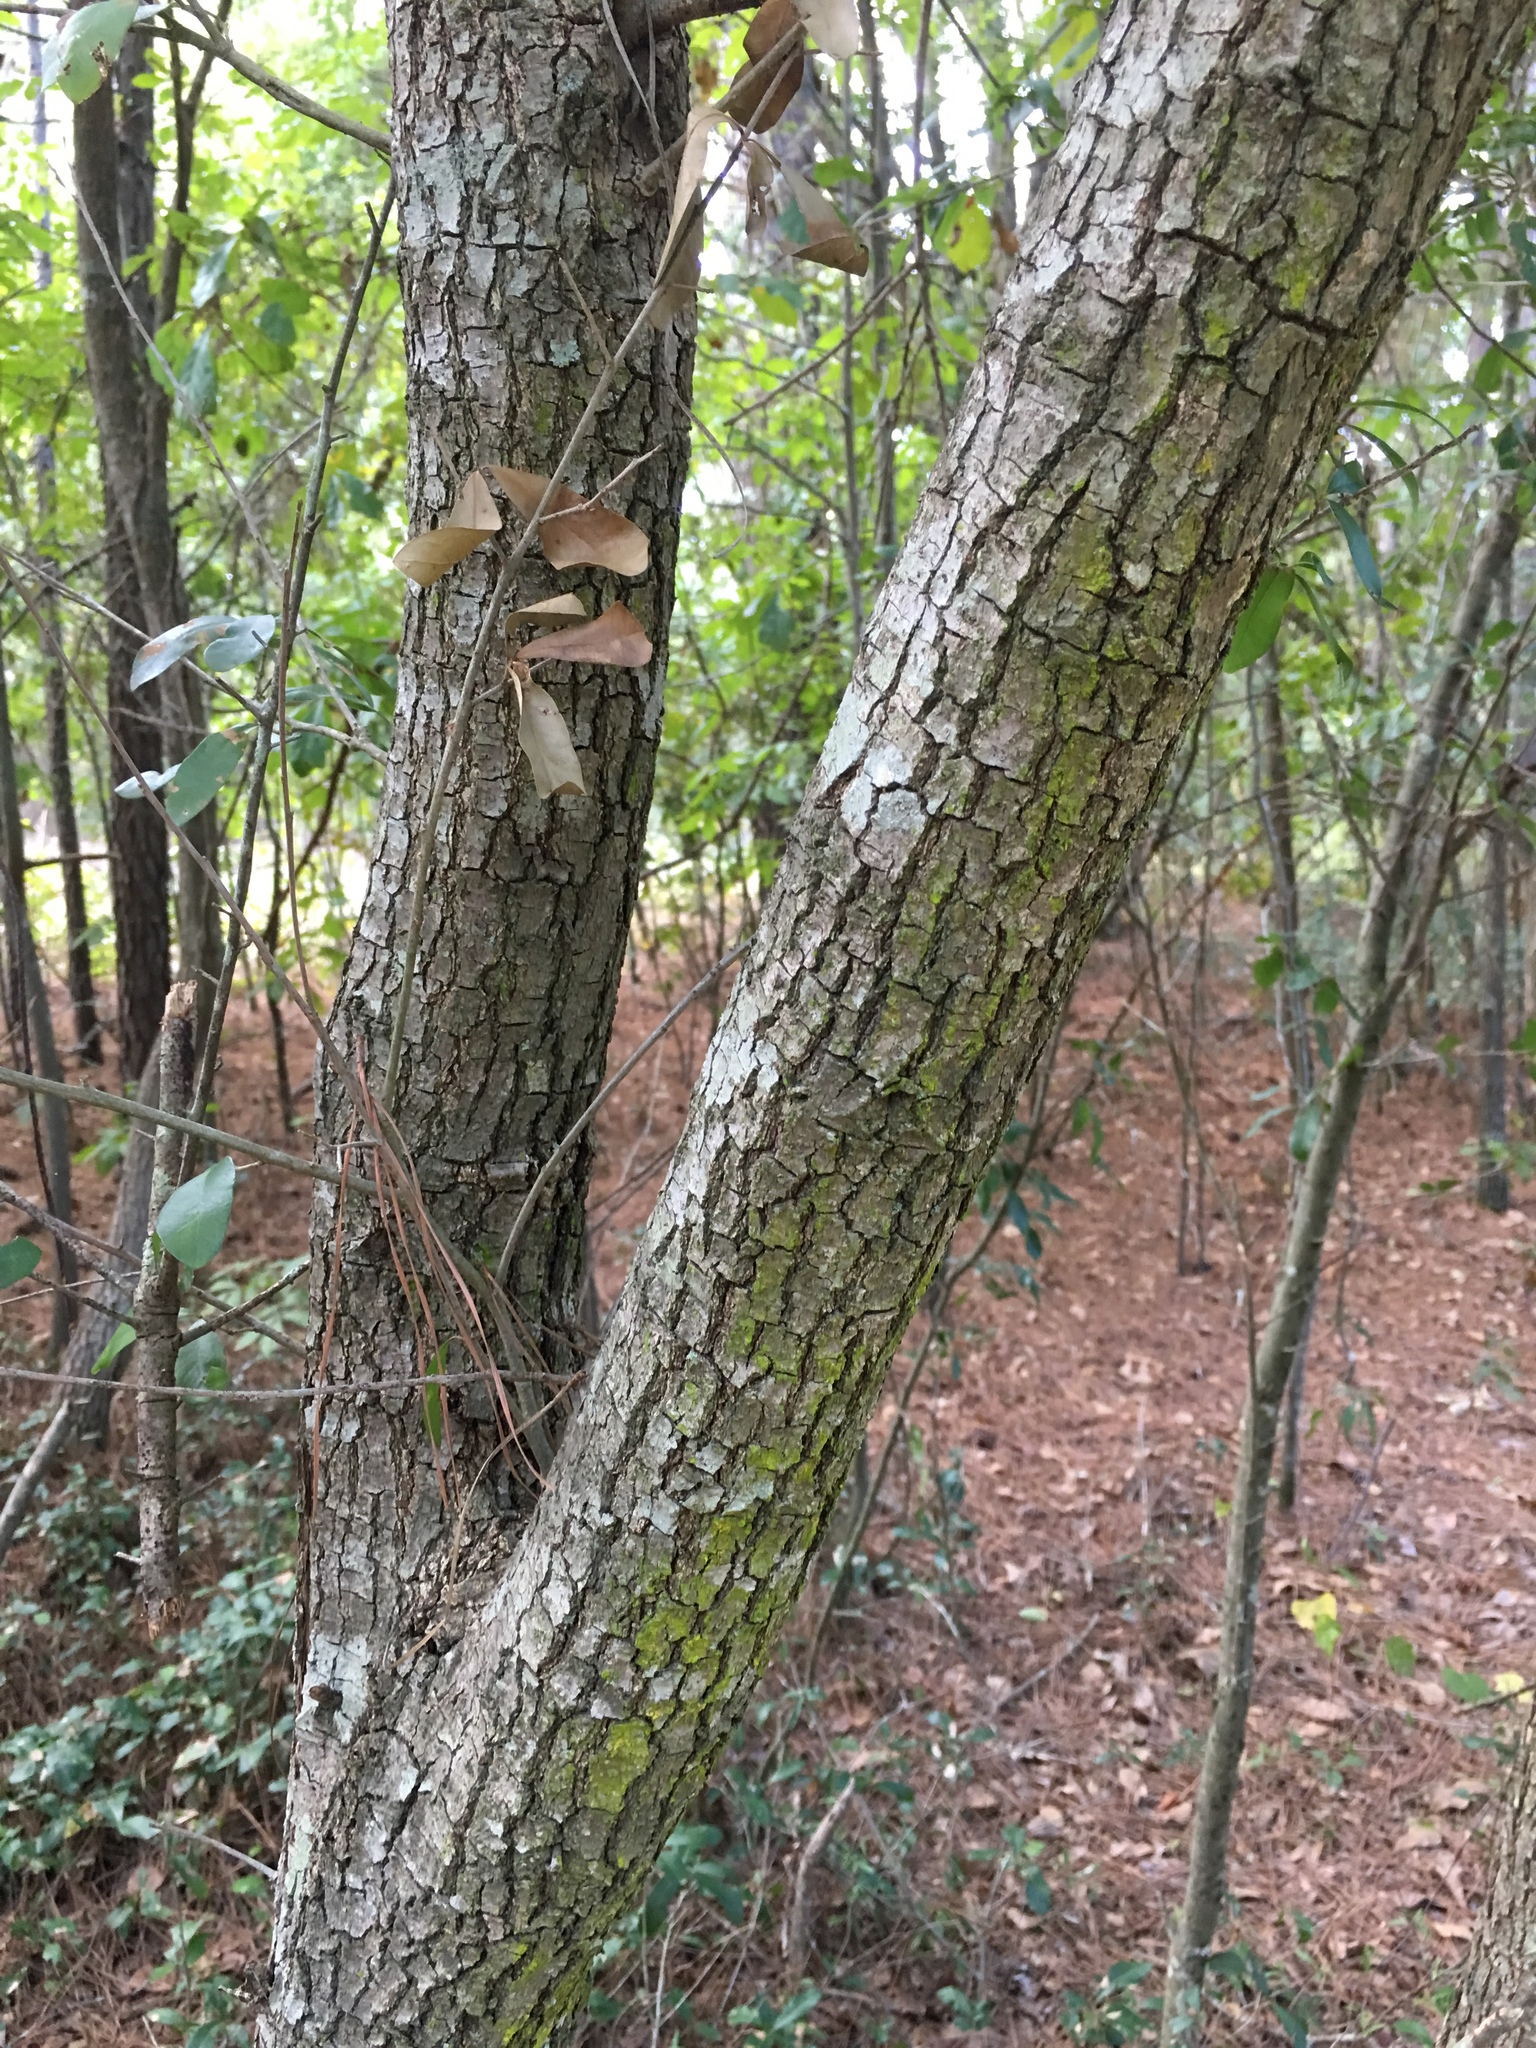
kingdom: Plantae
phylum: Tracheophyta
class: Magnoliopsida
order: Fagales
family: Fagaceae
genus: Quercus
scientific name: Quercus virginiana
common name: Southern live oak
